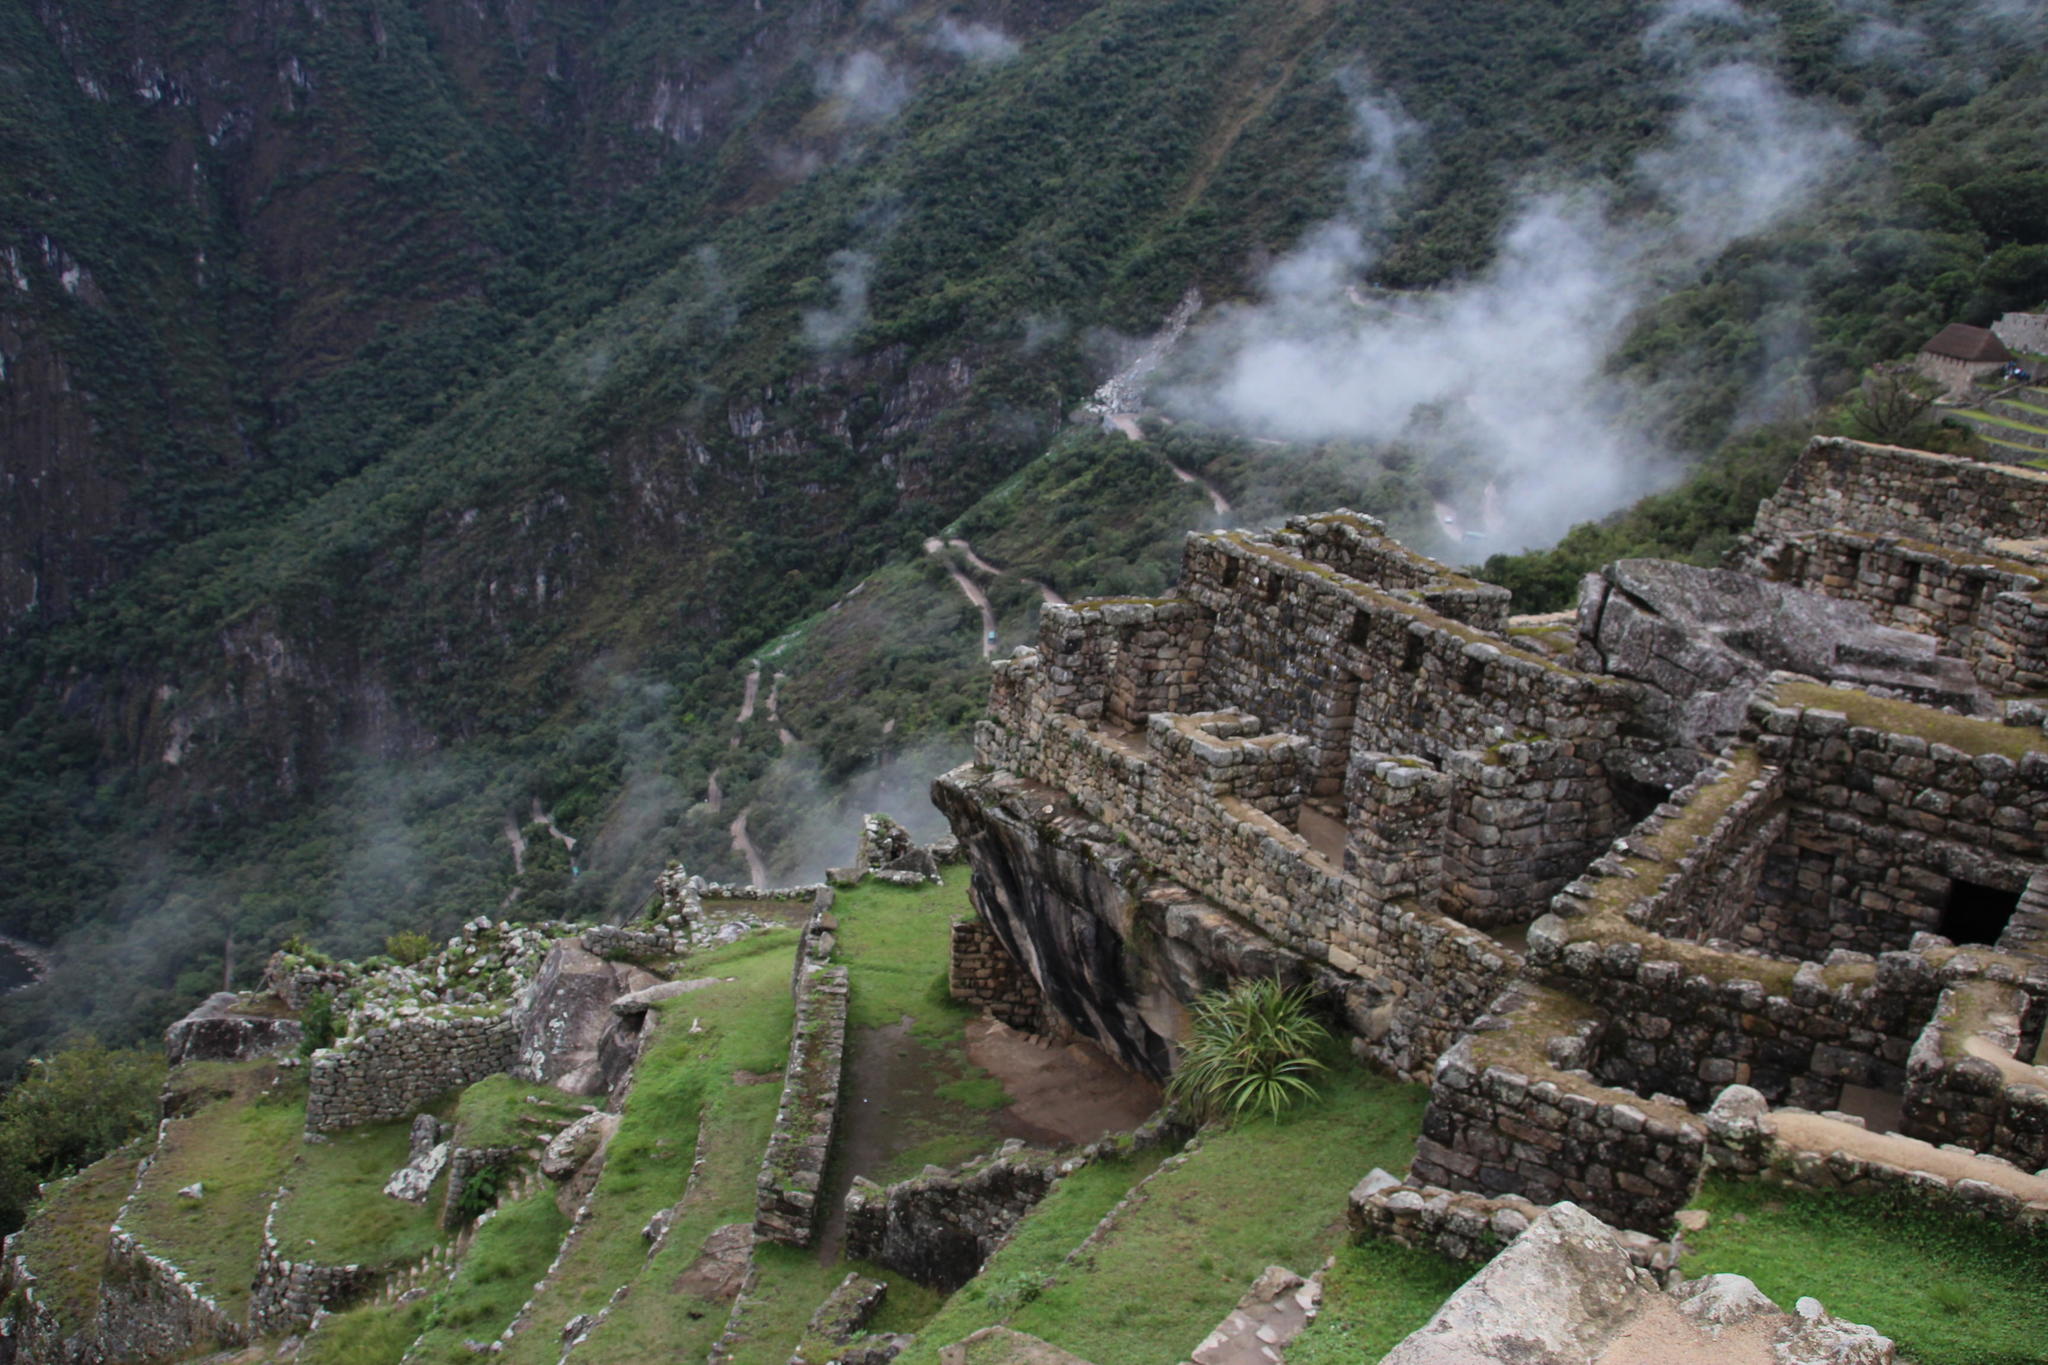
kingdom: Plantae
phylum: Tracheophyta
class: Liliopsida
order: Poales
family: Bromeliaceae
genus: Puya
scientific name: Puya weberbaueri
